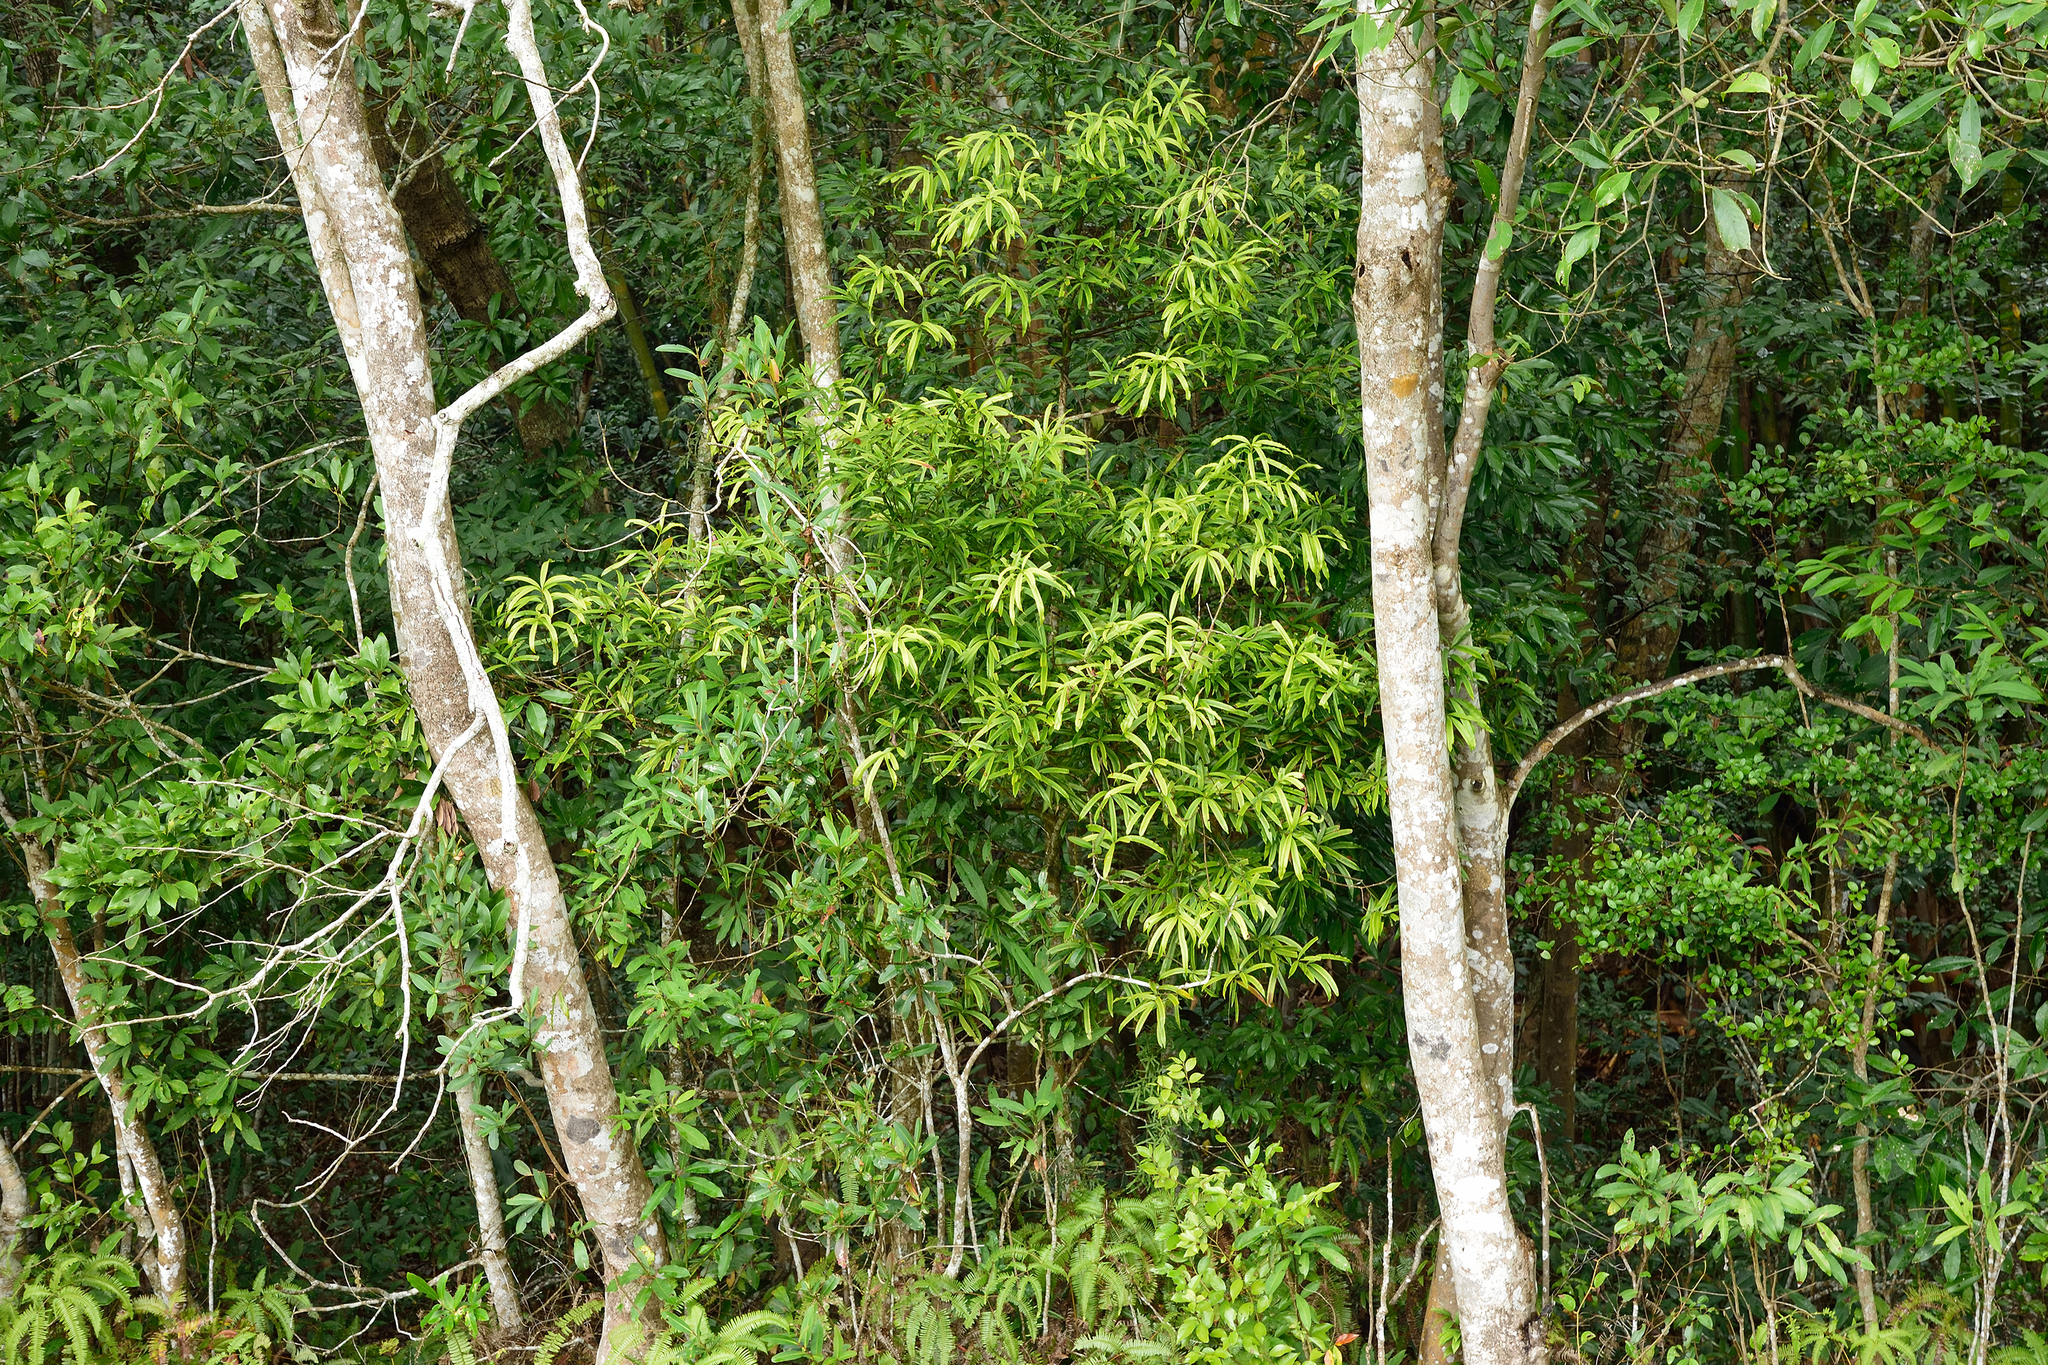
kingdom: Plantae
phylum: Tracheophyta
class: Pinopsida
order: Pinales
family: Podocarpaceae
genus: Podocarpus
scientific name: Podocarpus nakaii
